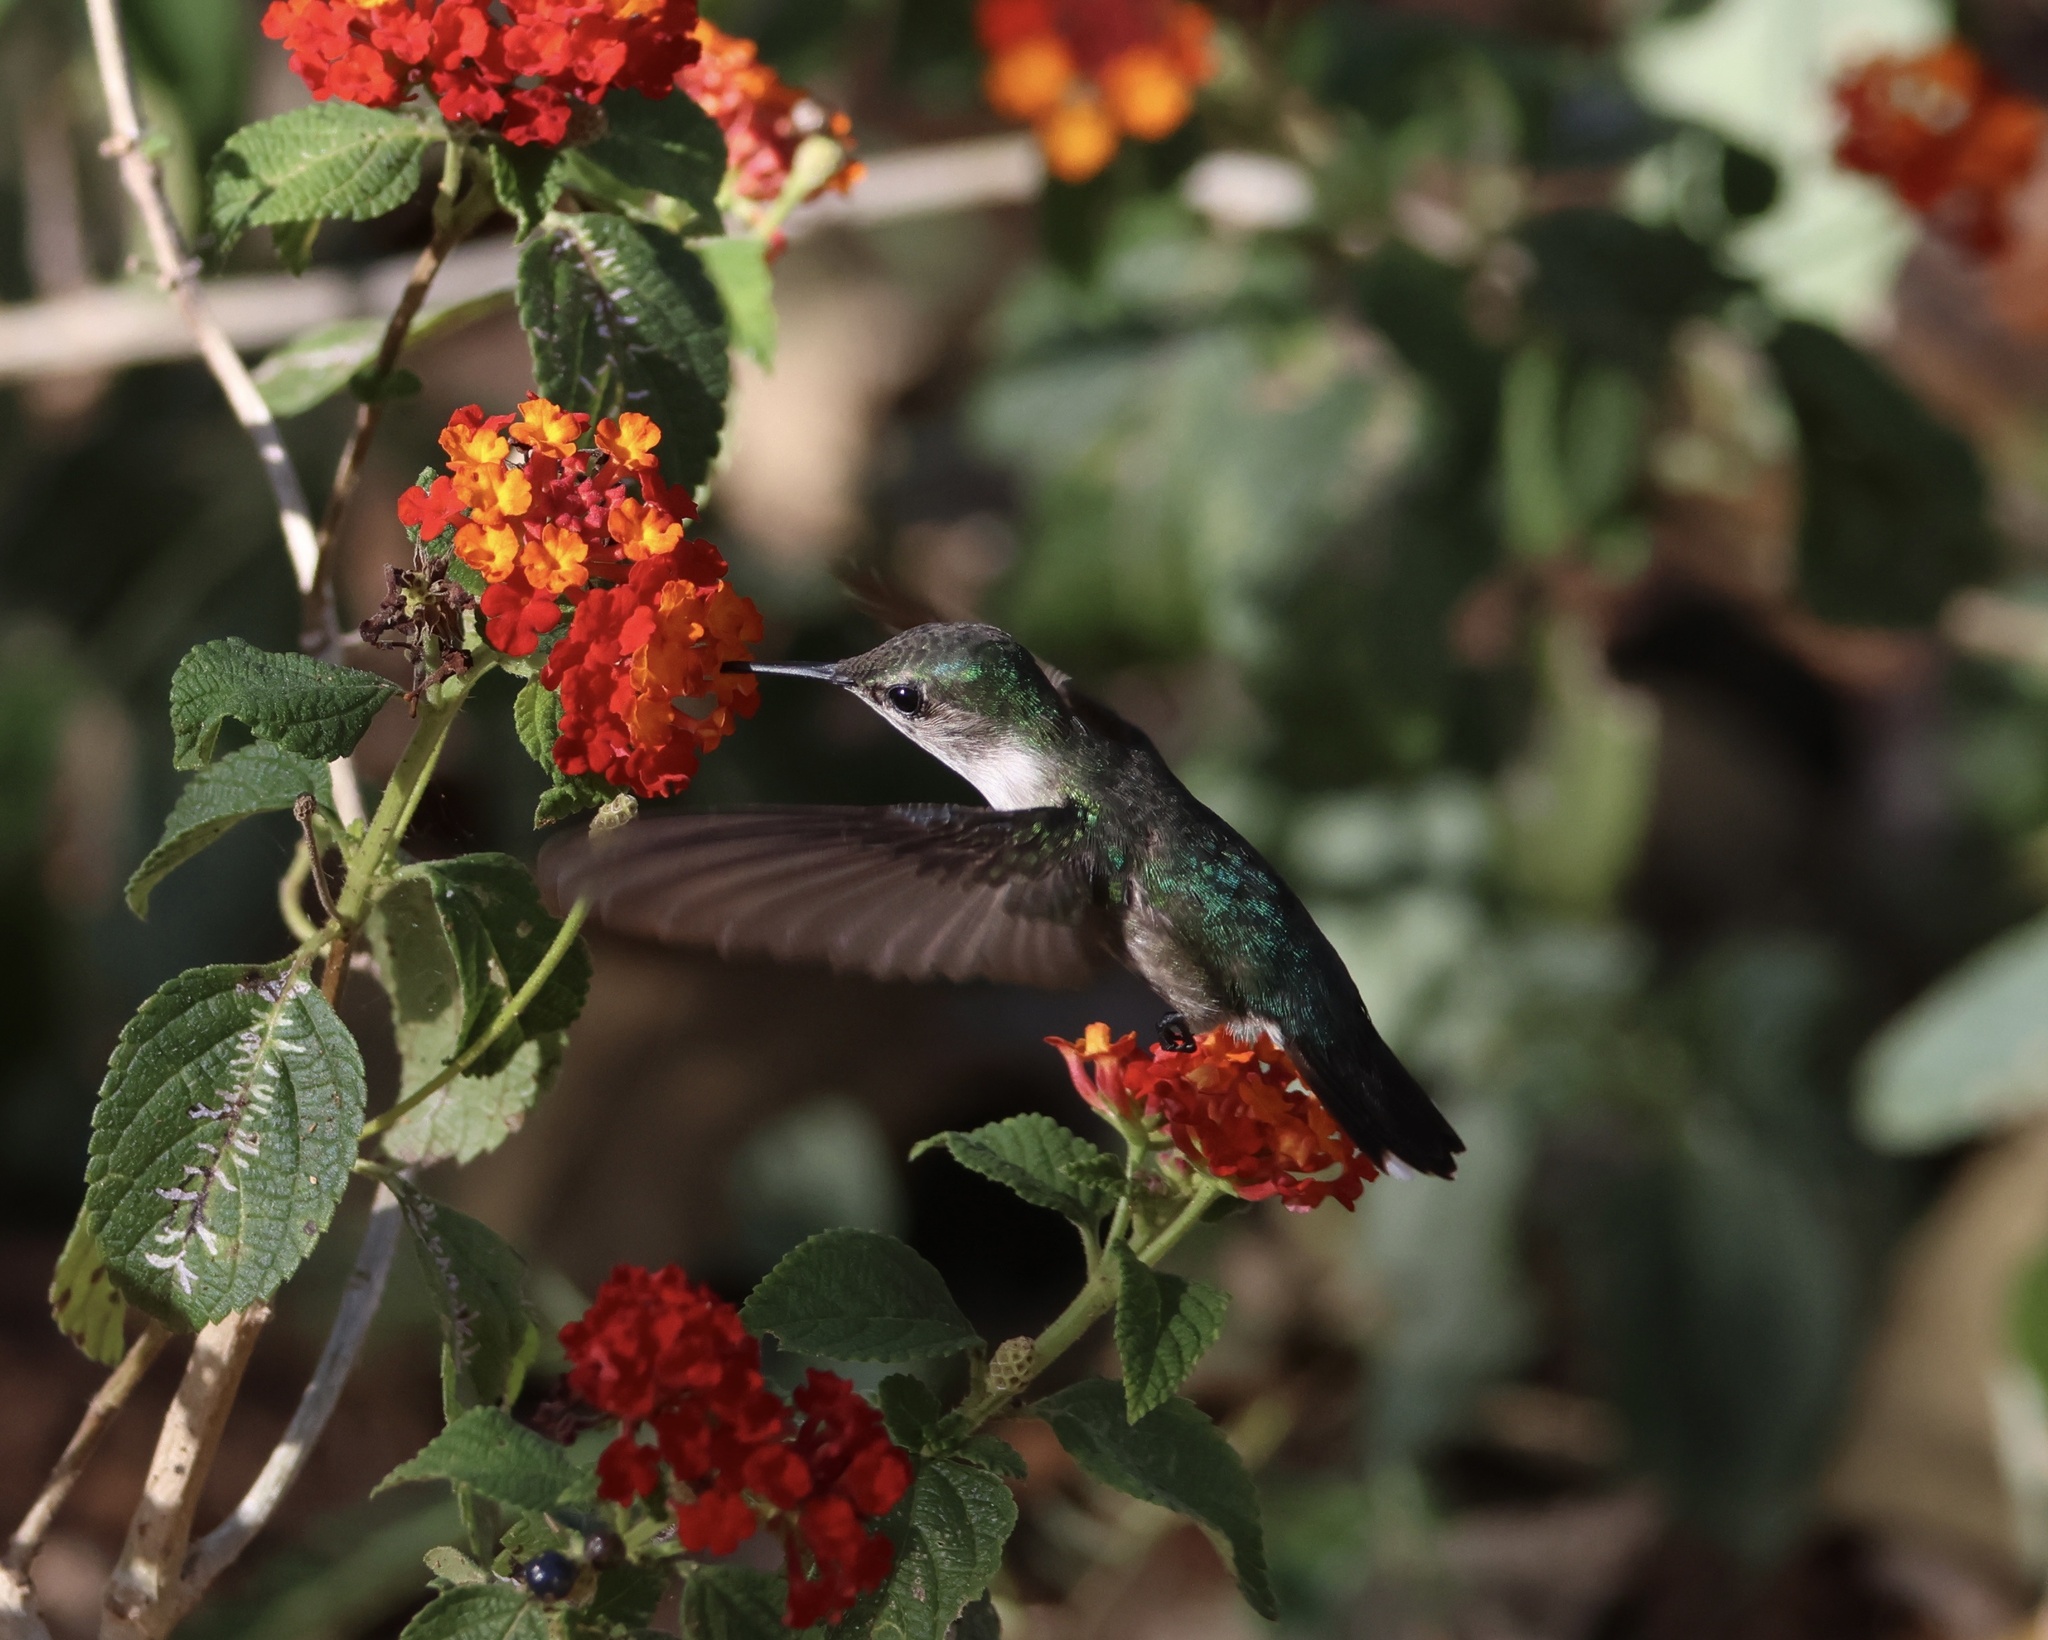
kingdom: Animalia
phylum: Chordata
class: Aves
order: Apodiformes
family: Trochilidae
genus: Mellisuga
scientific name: Mellisuga minima
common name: Vervain hummingbird
